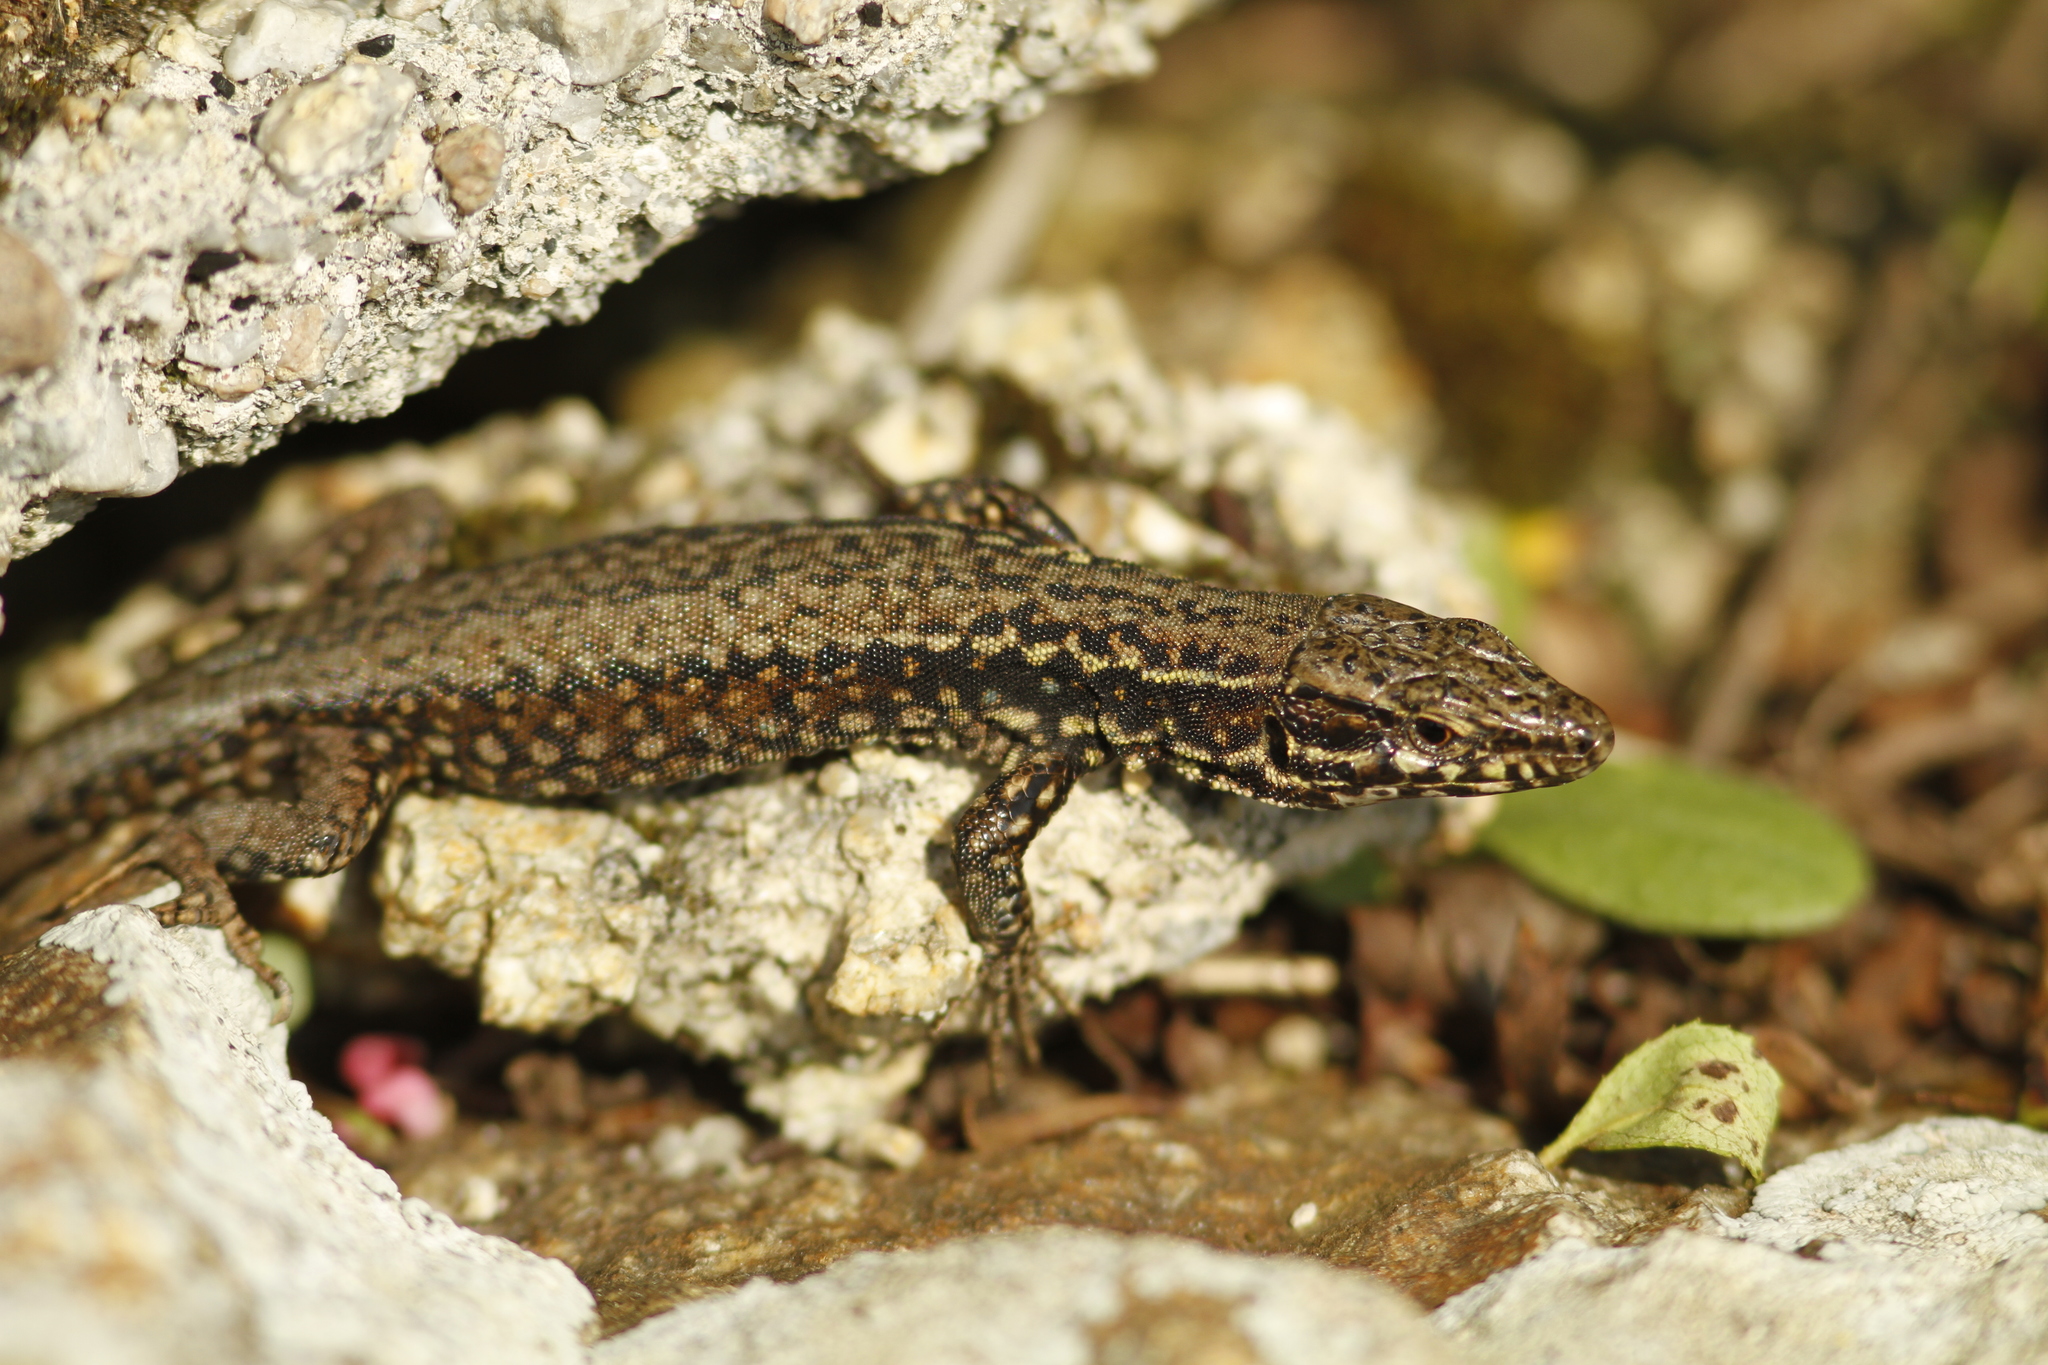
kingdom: Animalia
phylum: Chordata
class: Squamata
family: Lacertidae
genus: Podarcis
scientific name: Podarcis muralis
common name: Common wall lizard
